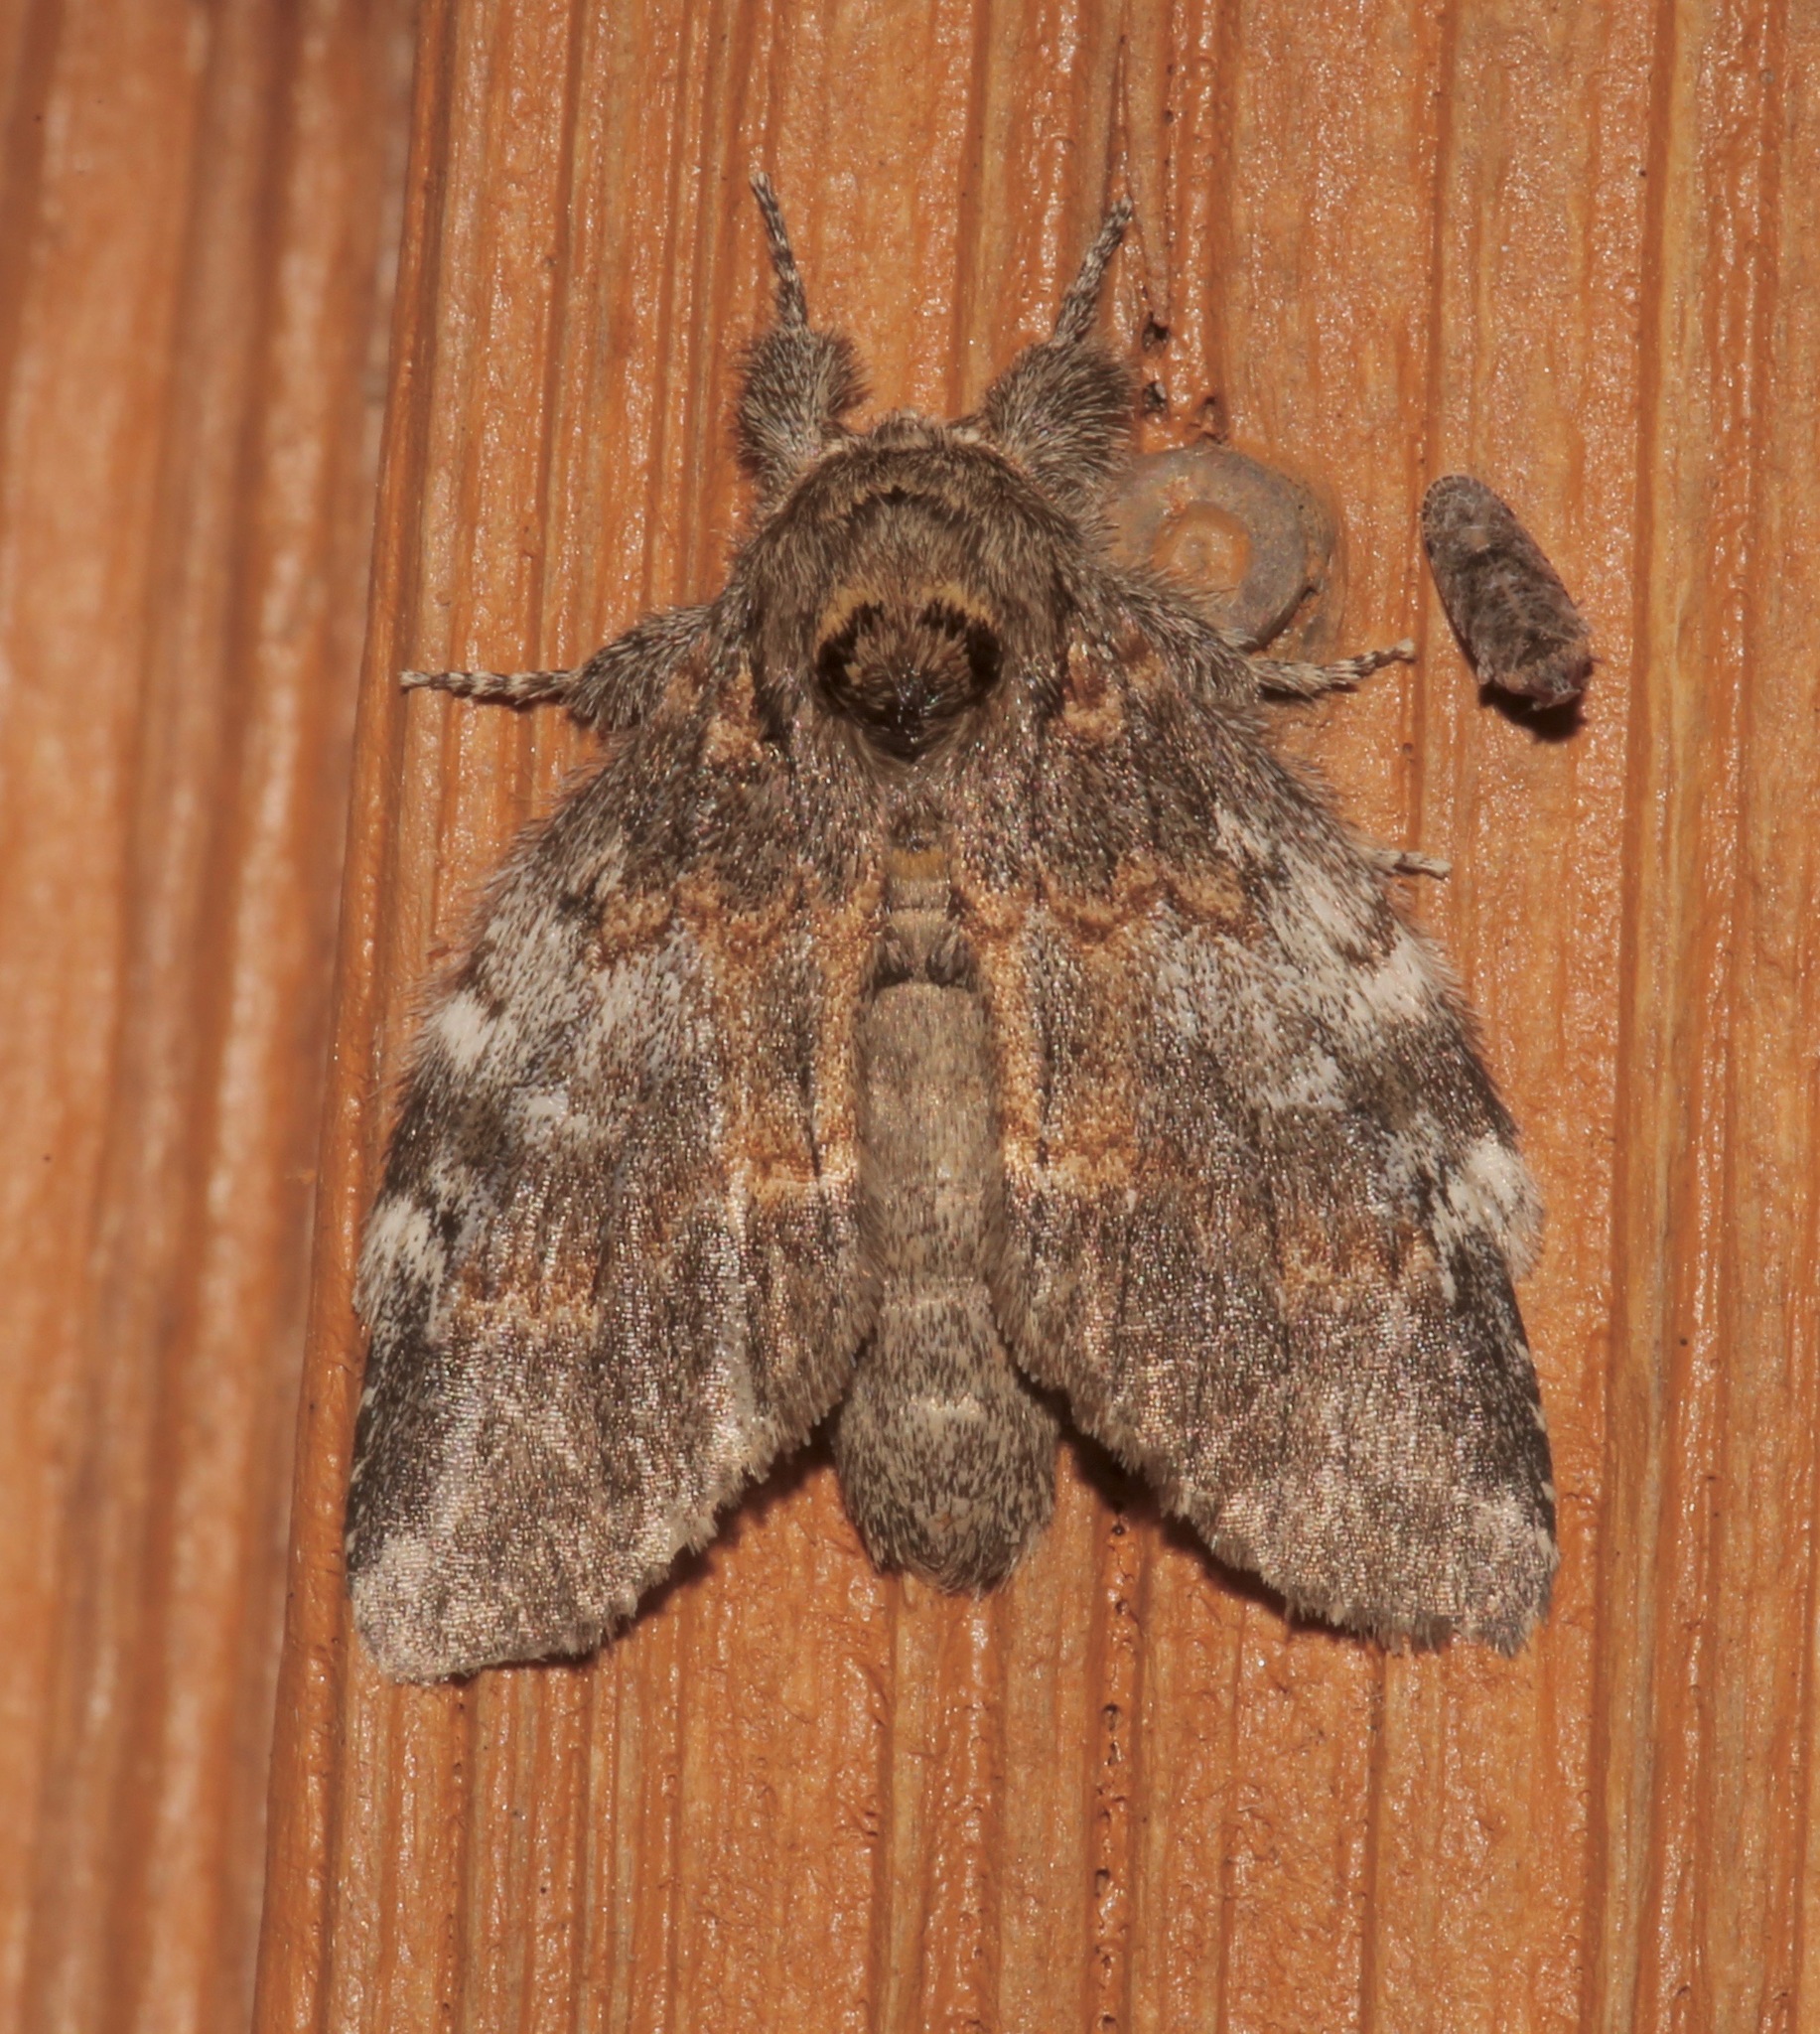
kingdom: Animalia
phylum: Arthropoda
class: Insecta
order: Lepidoptera
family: Notodontidae
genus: Peridea
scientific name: Peridea angulosa
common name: Angulose prominent
